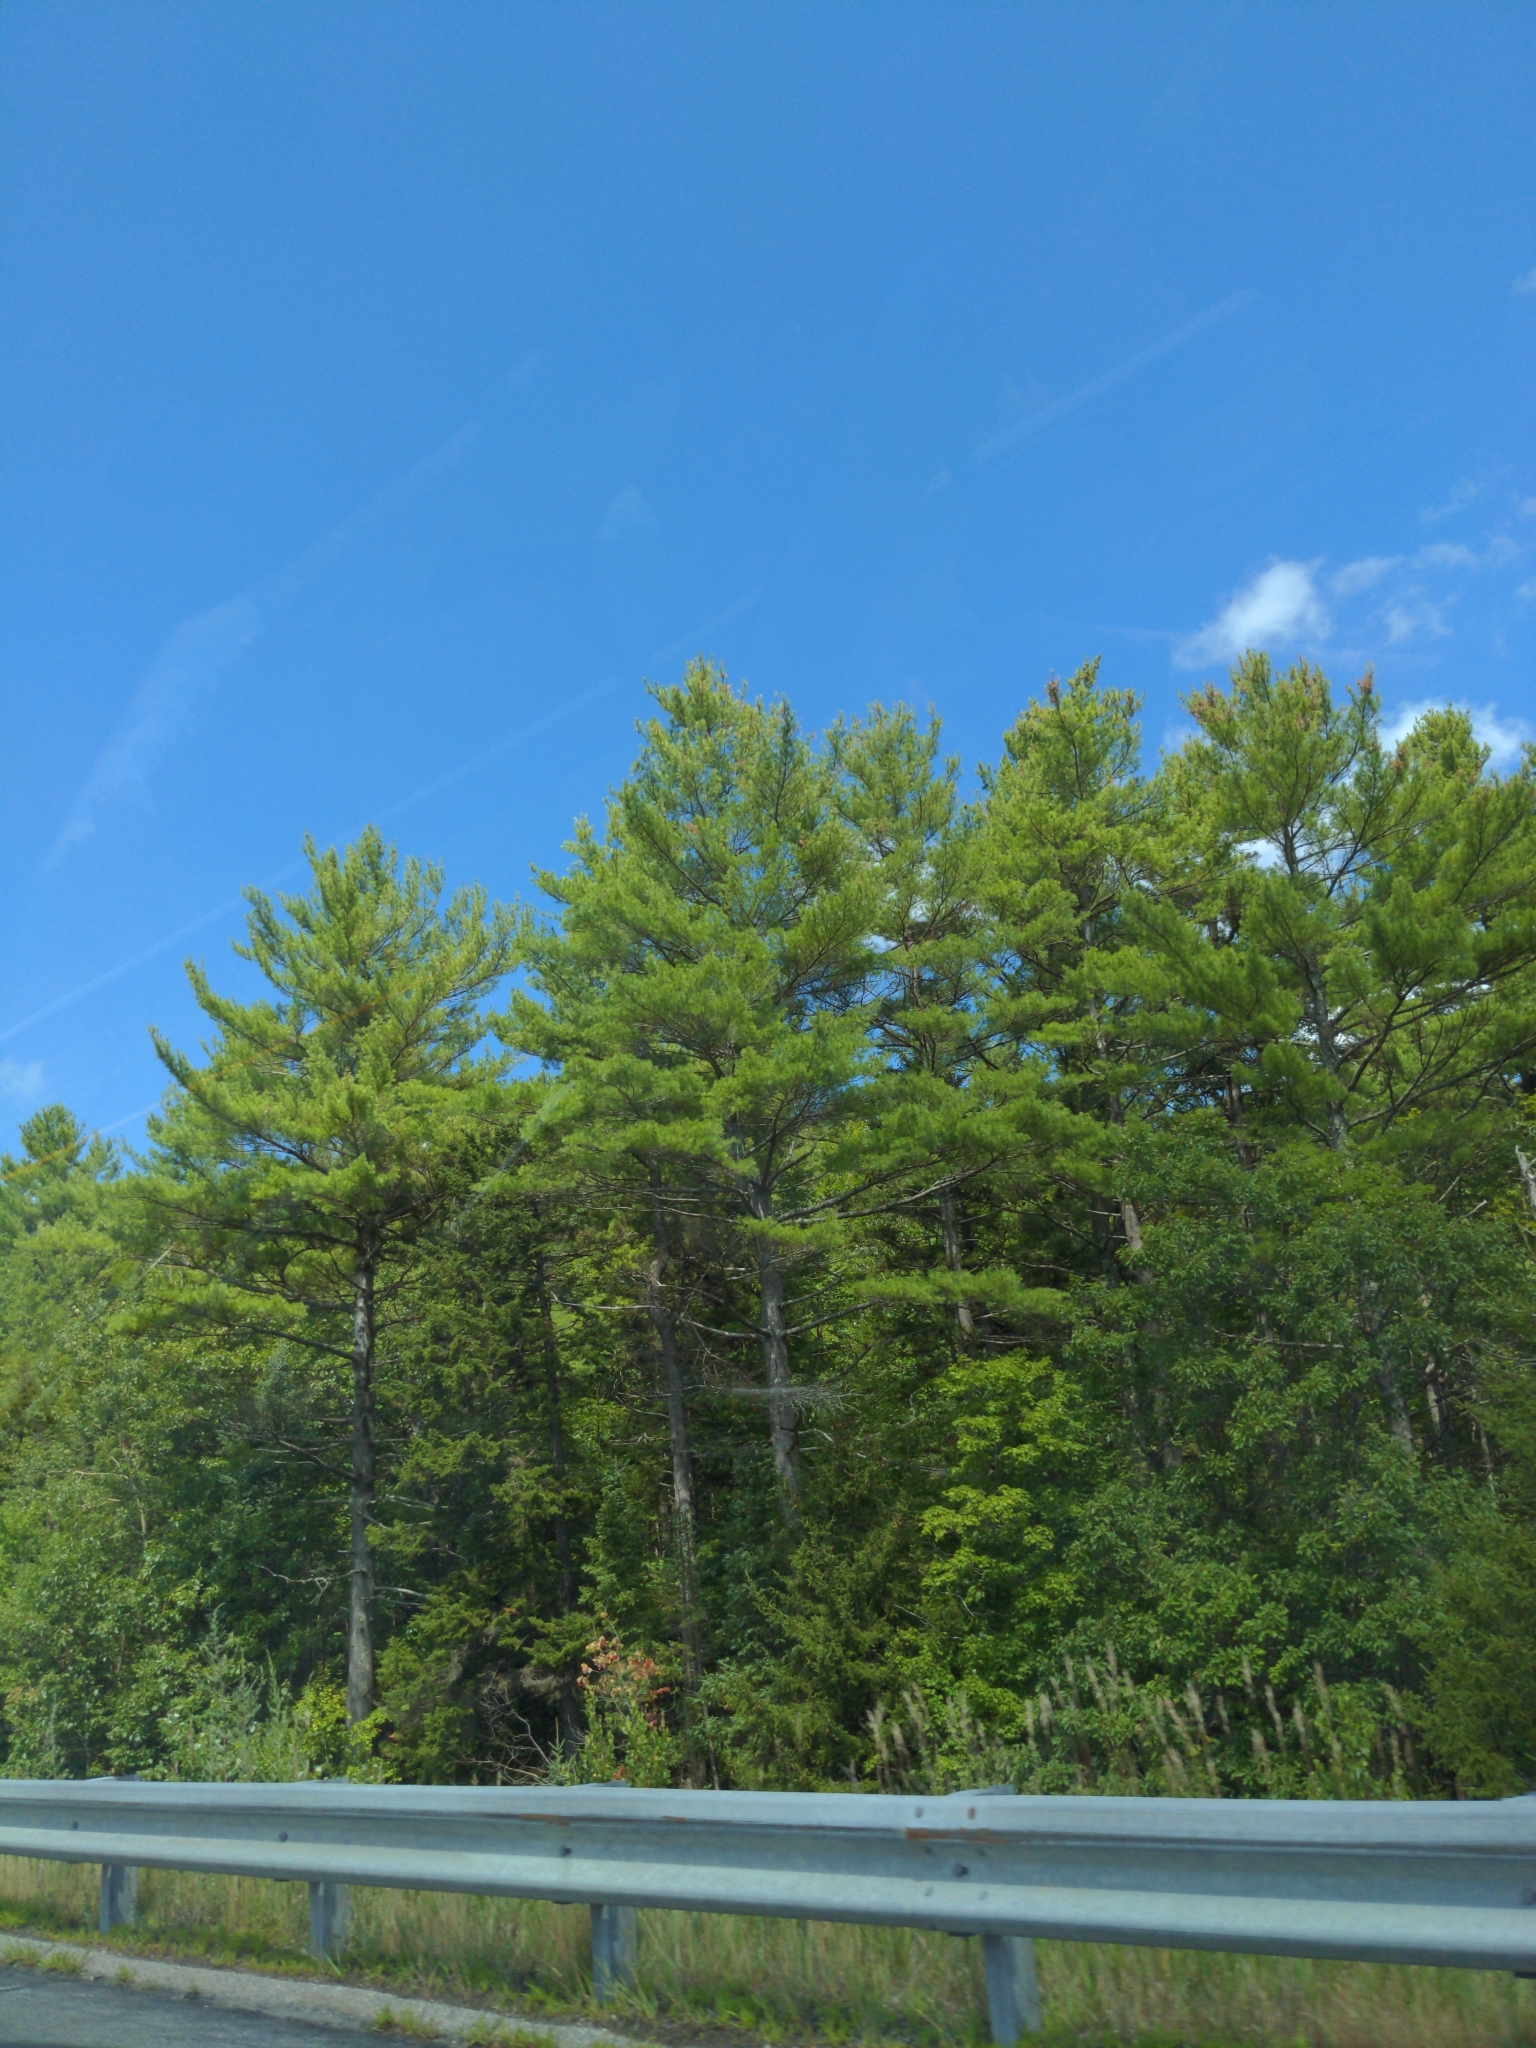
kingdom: Plantae
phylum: Tracheophyta
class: Pinopsida
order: Pinales
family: Pinaceae
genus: Pinus
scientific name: Pinus strobus
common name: Weymouth pine
